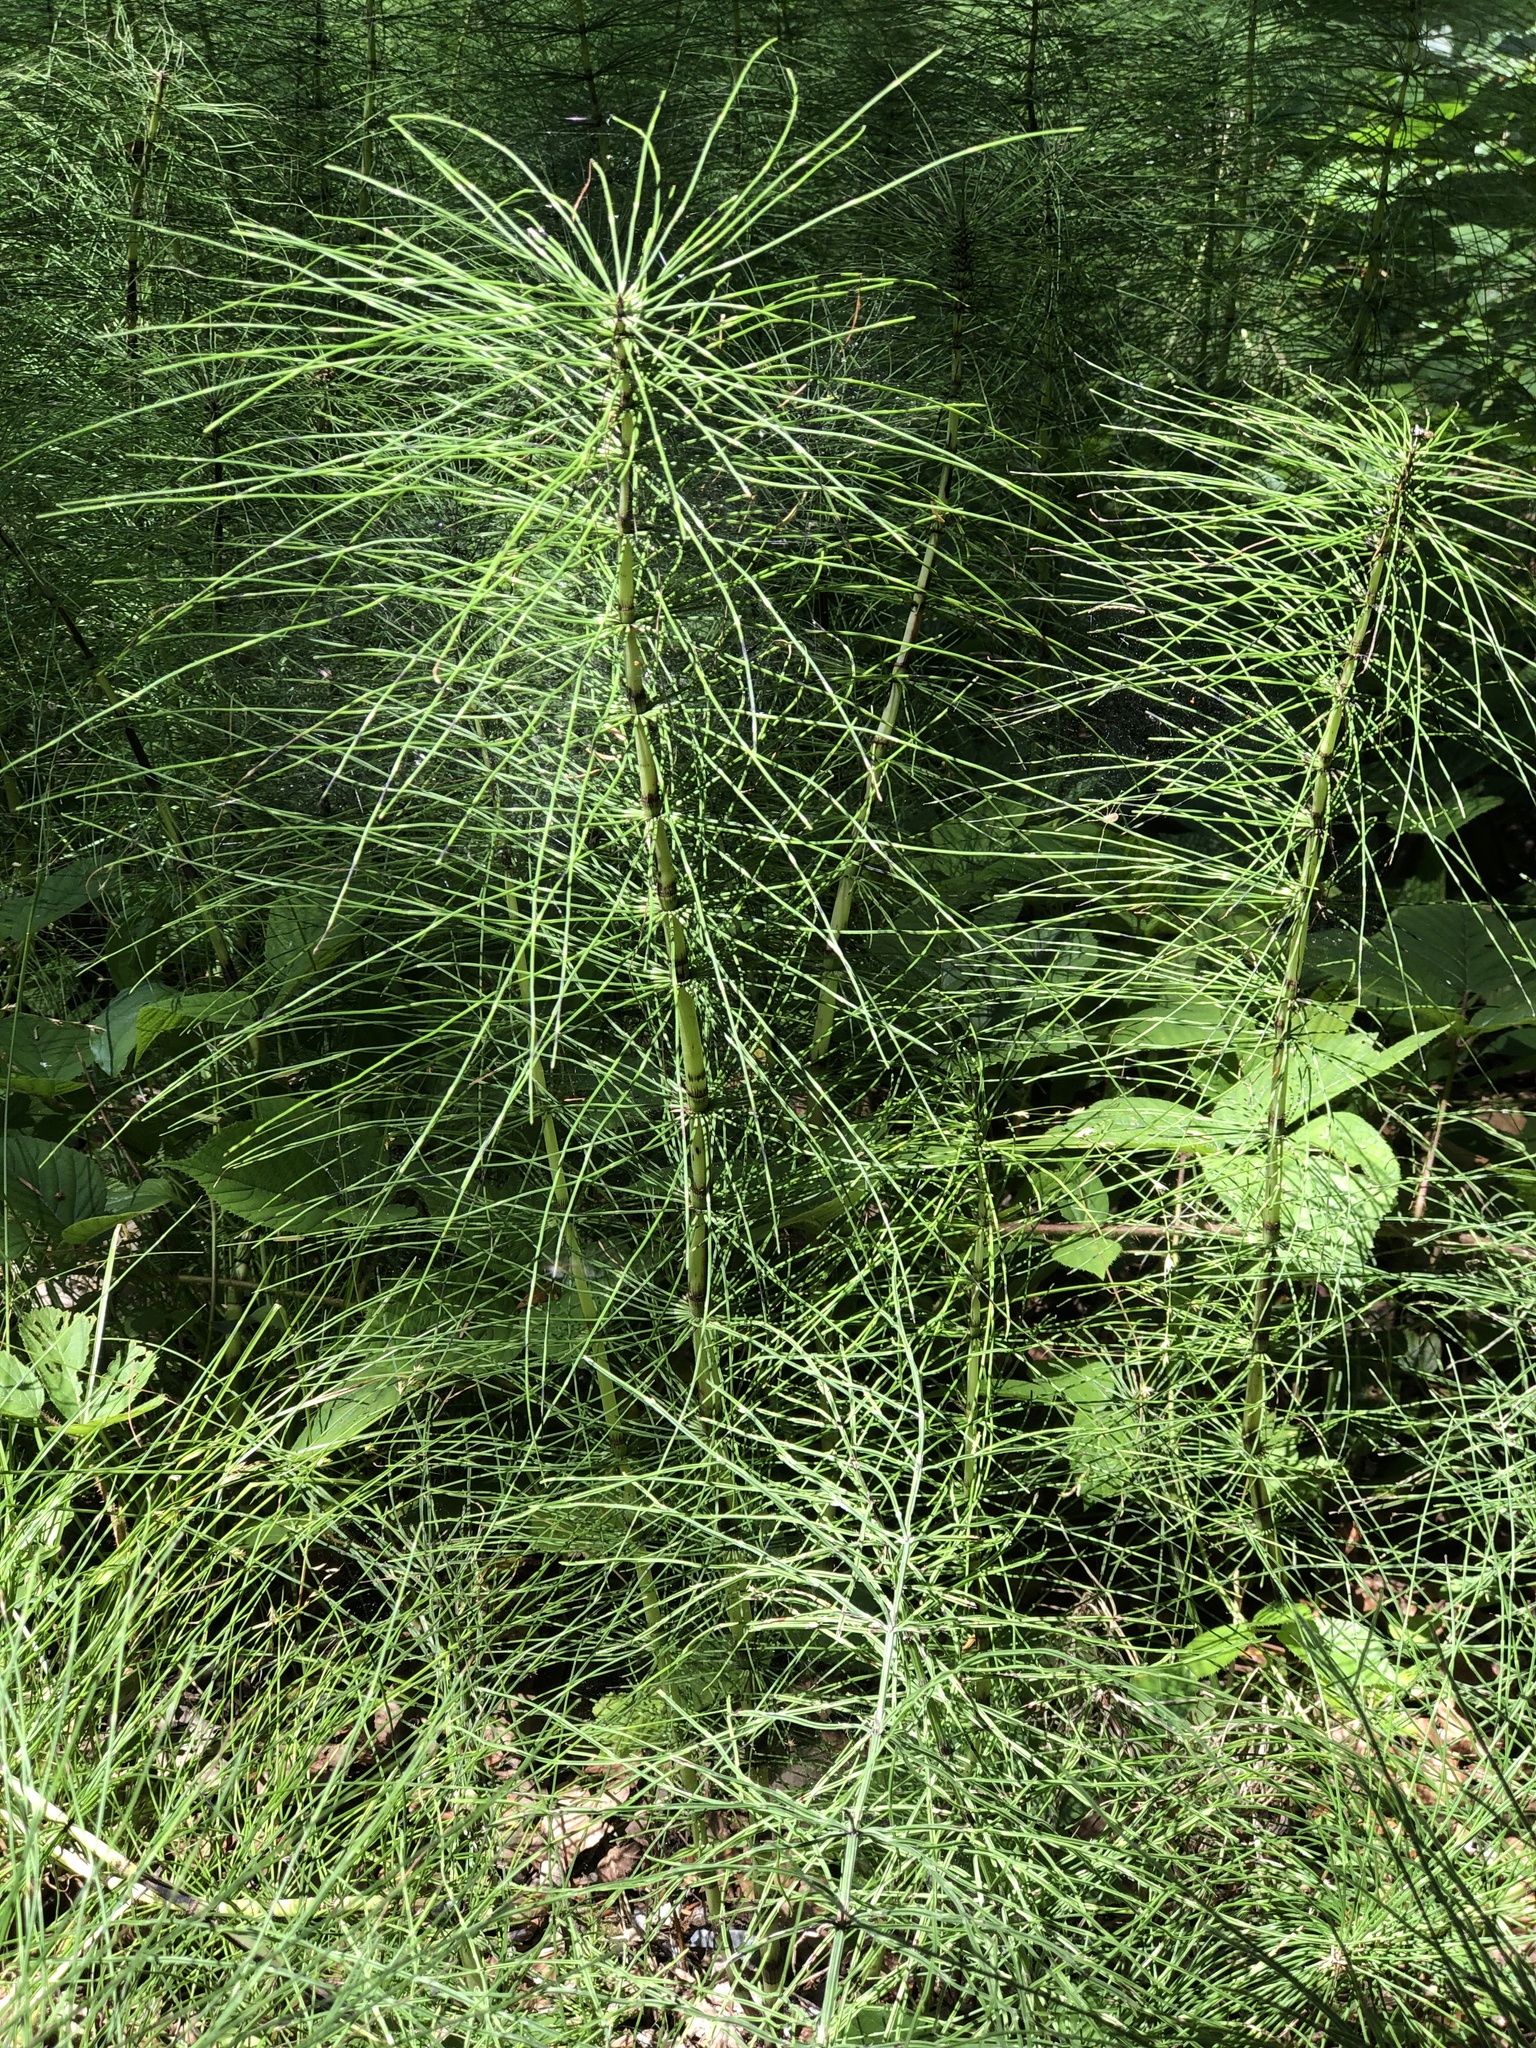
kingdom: Plantae
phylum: Tracheophyta
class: Polypodiopsida
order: Equisetales
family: Equisetaceae
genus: Equisetum
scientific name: Equisetum telmateia
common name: Great horsetail
